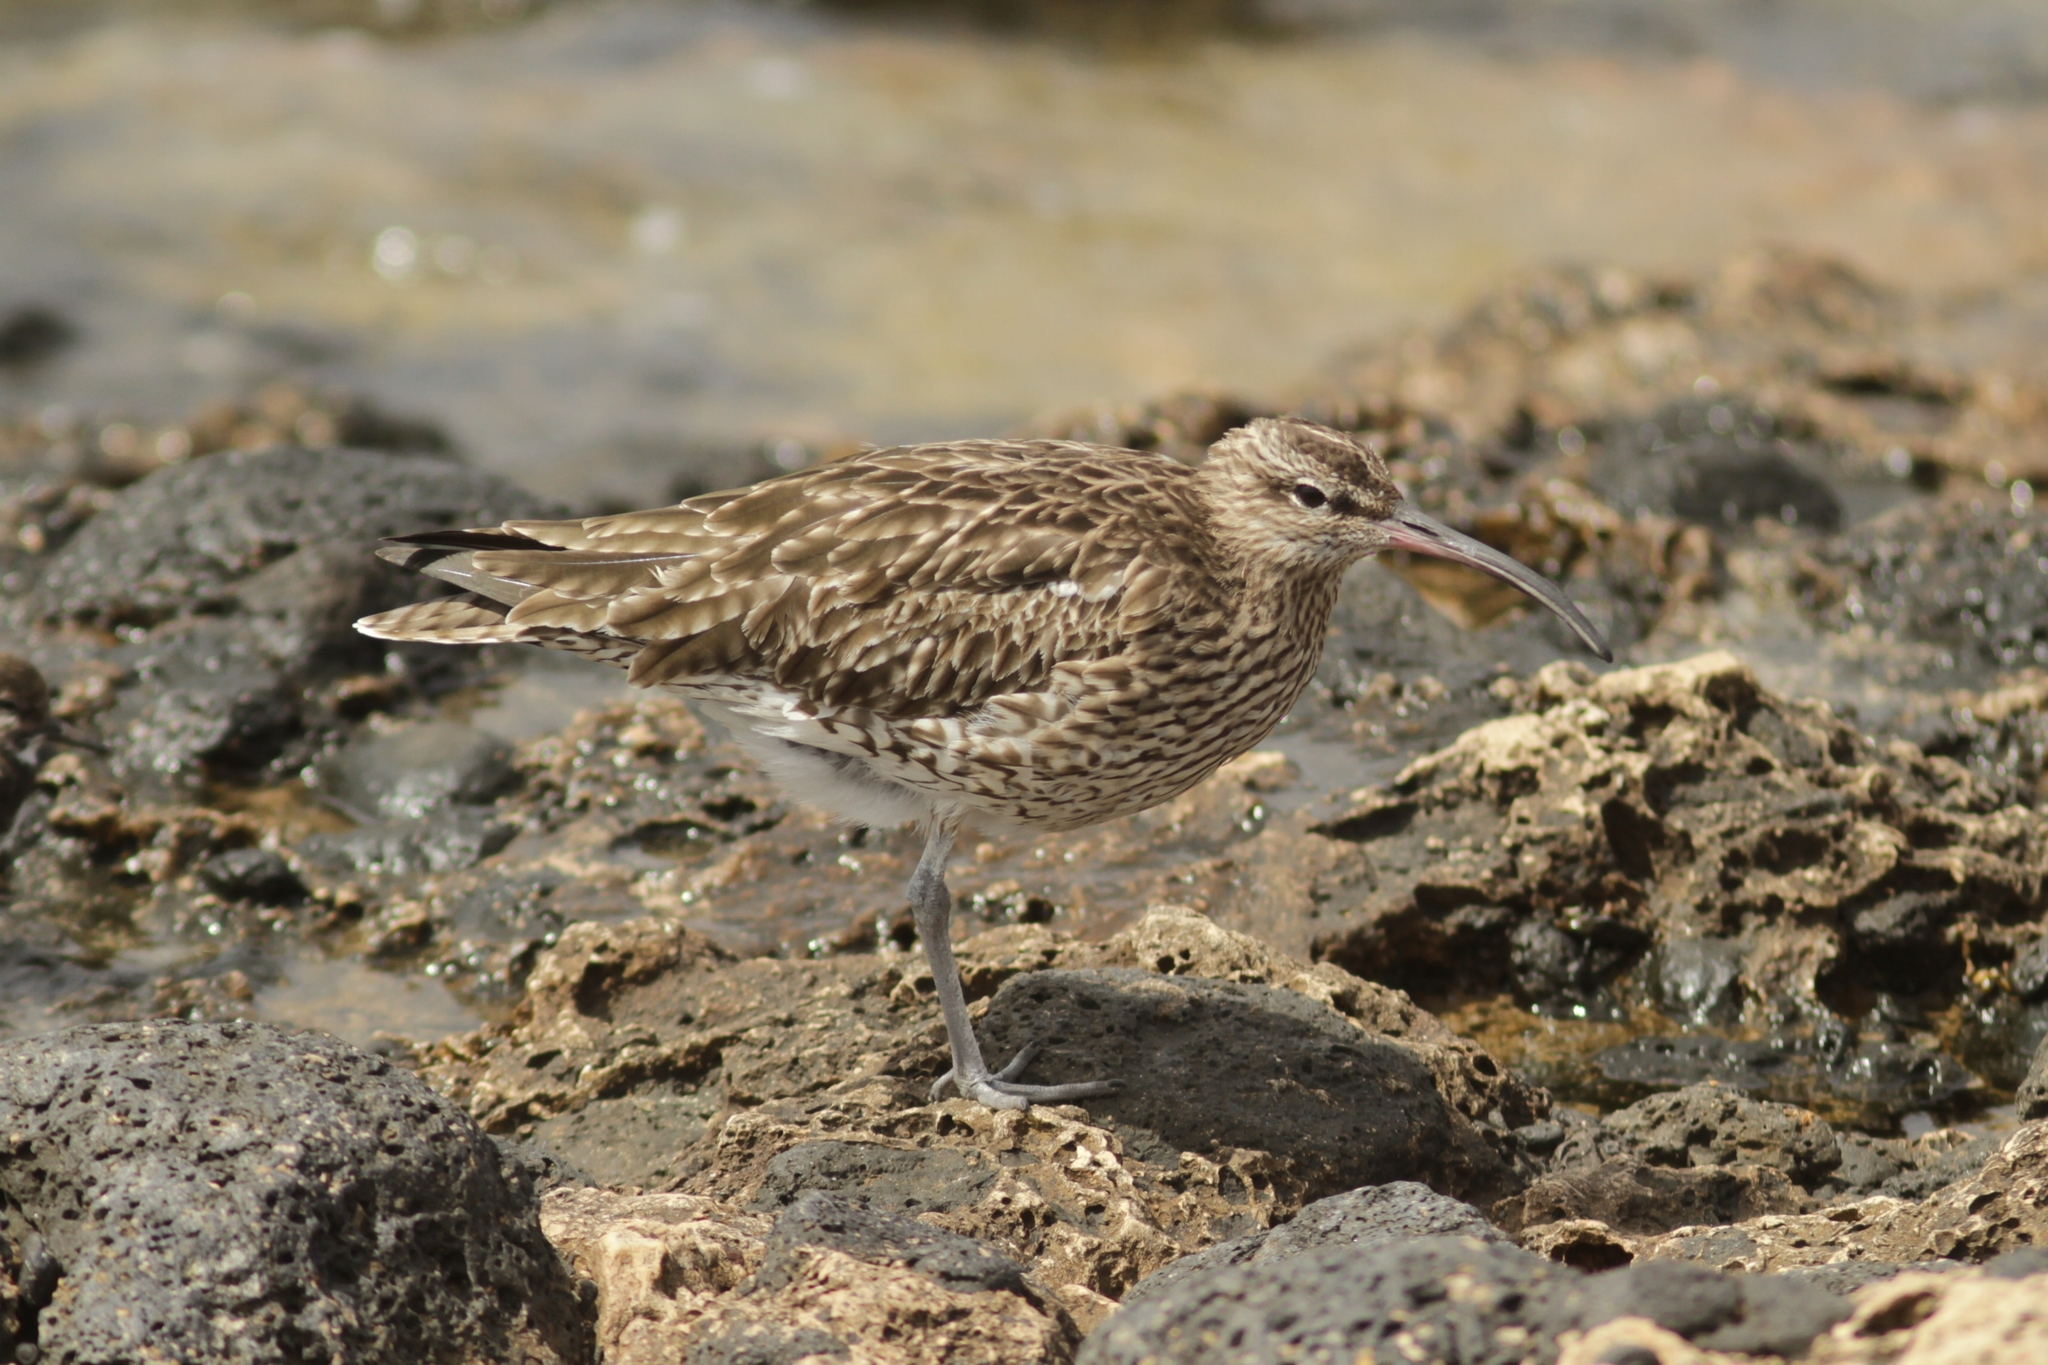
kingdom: Animalia
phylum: Chordata
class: Aves
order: Charadriiformes
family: Scolopacidae
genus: Numenius
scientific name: Numenius phaeopus
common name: Whimbrel
